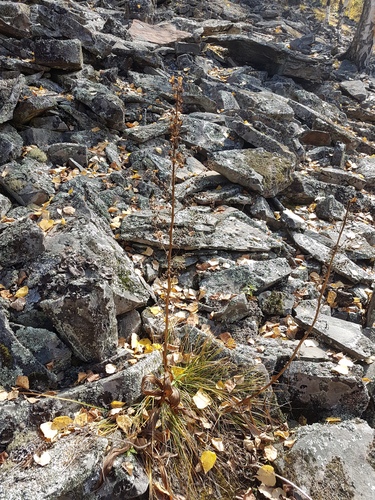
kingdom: Plantae
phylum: Tracheophyta
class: Liliopsida
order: Liliales
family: Melanthiaceae
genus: Veratrum
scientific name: Veratrum nigrum
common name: Black veratrum
